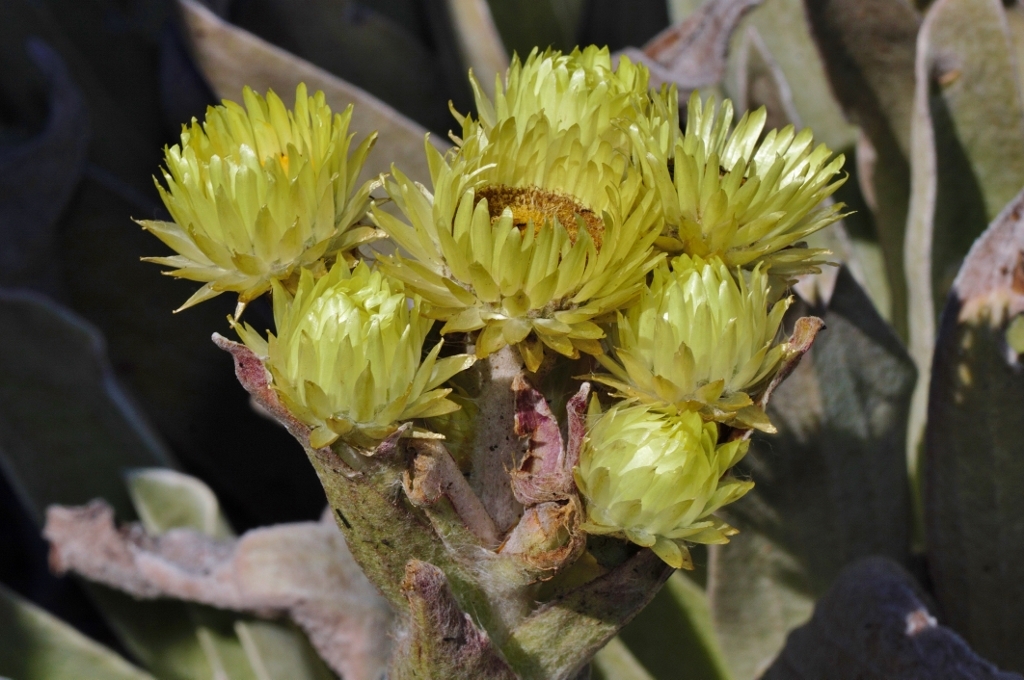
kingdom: Plantae
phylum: Tracheophyta
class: Magnoliopsida
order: Asterales
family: Asteraceae
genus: Helichrysum
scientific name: Helichrysum nitens
